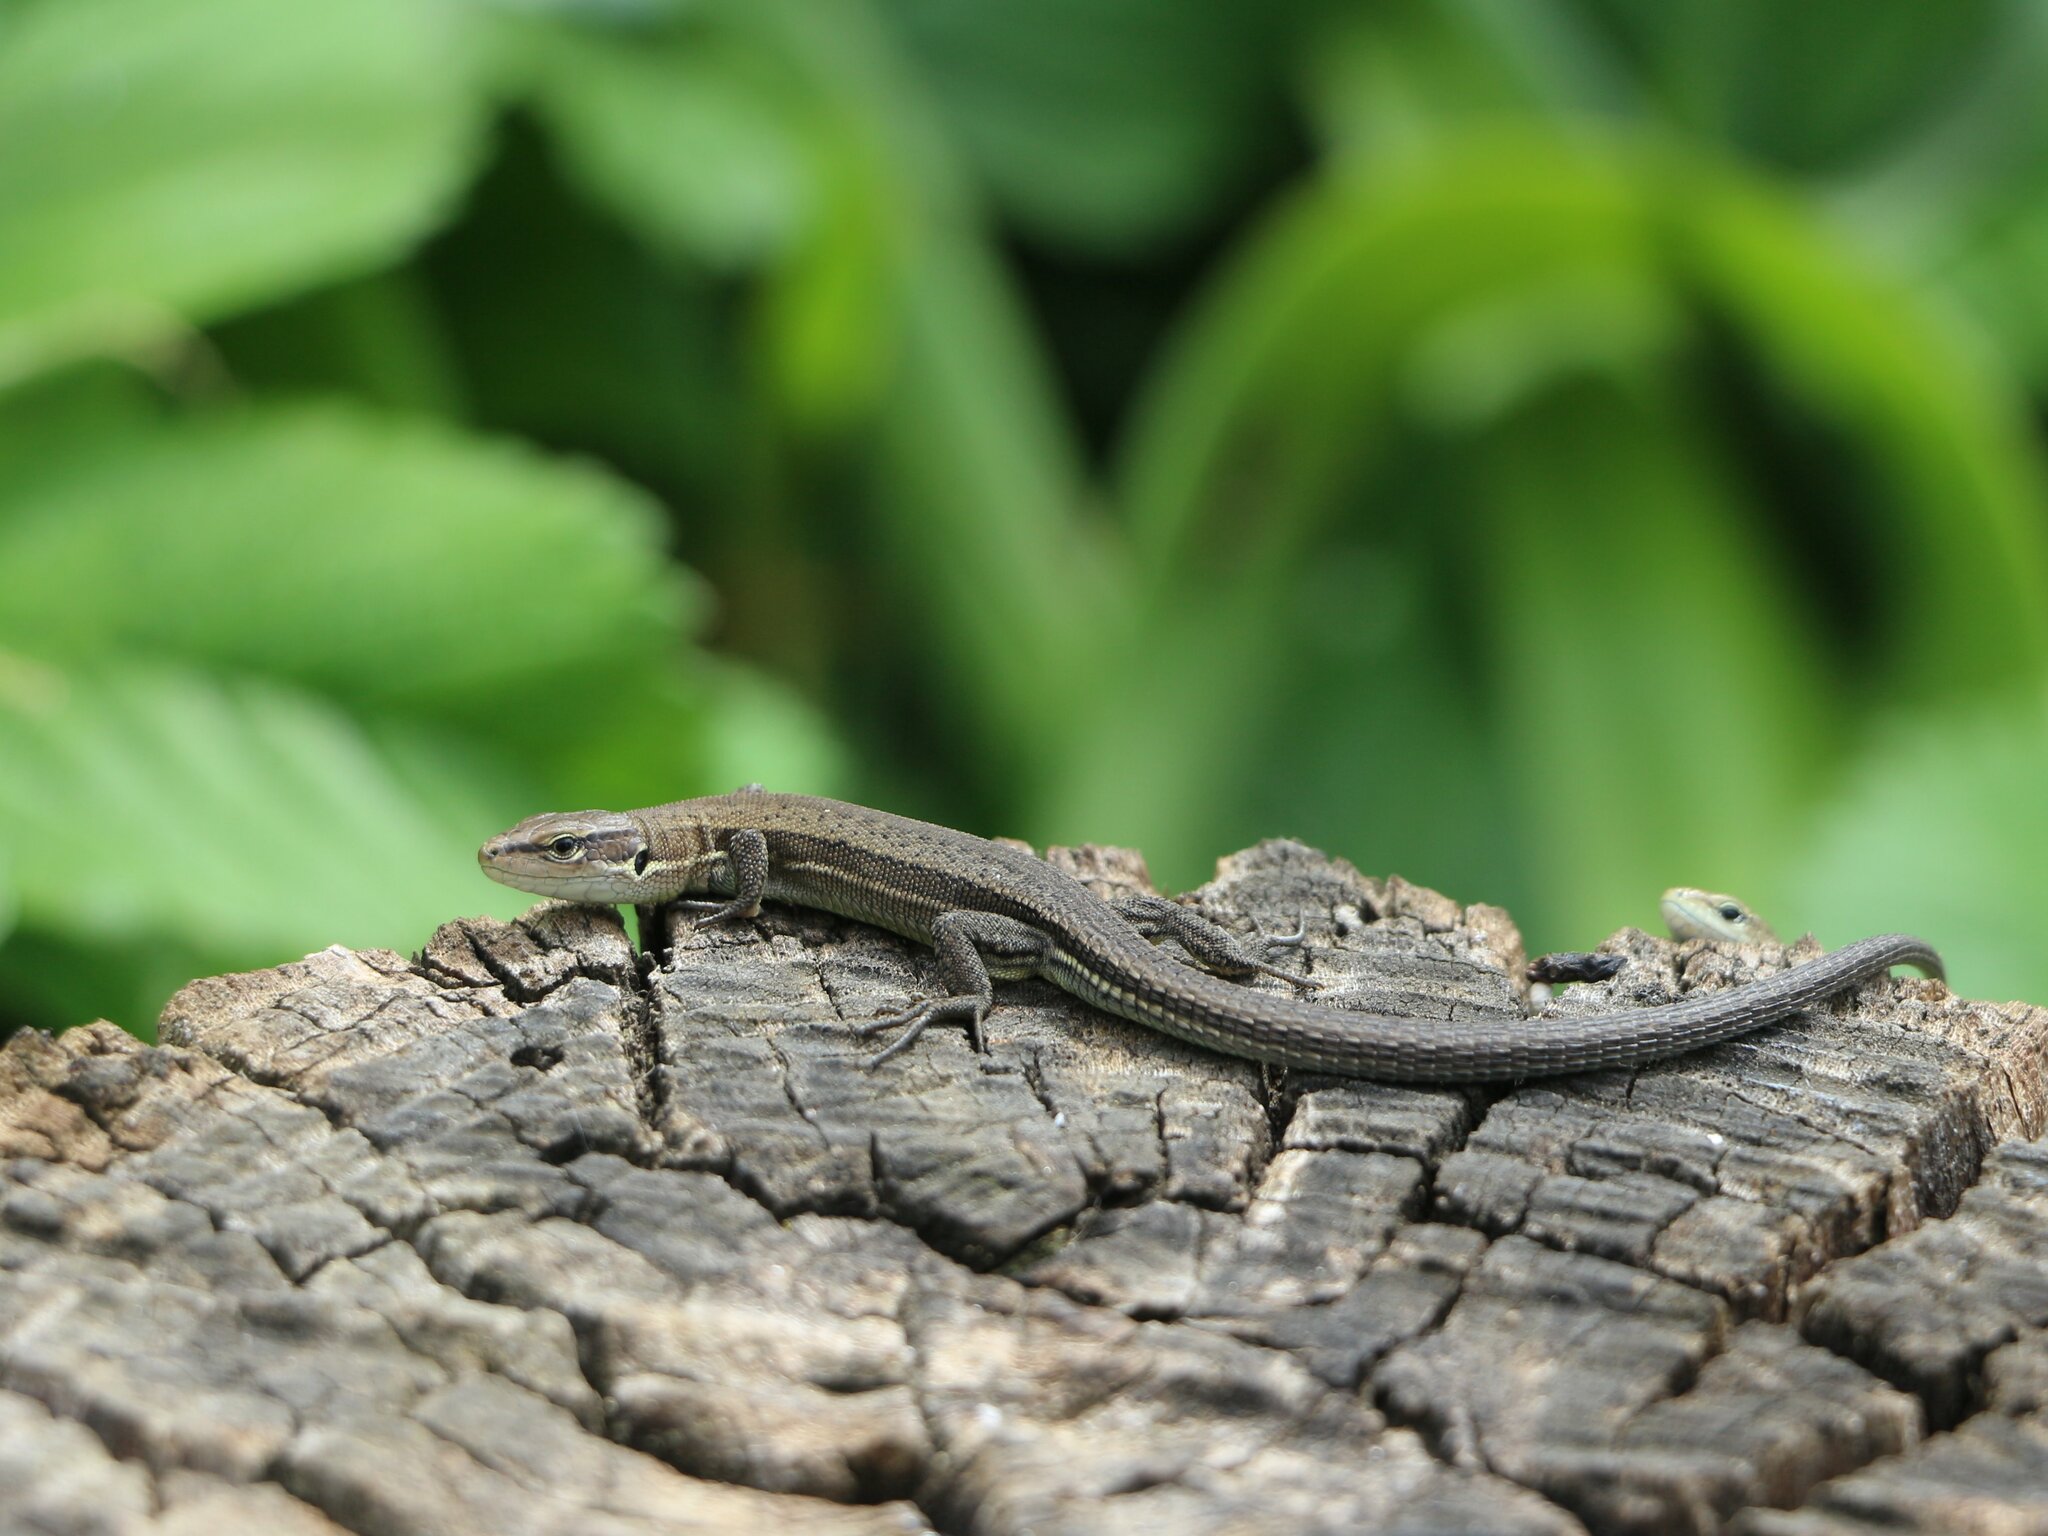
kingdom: Animalia
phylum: Chordata
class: Squamata
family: Lacertidae
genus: Darevskia
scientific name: Darevskia praticola
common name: Meadow lizard
